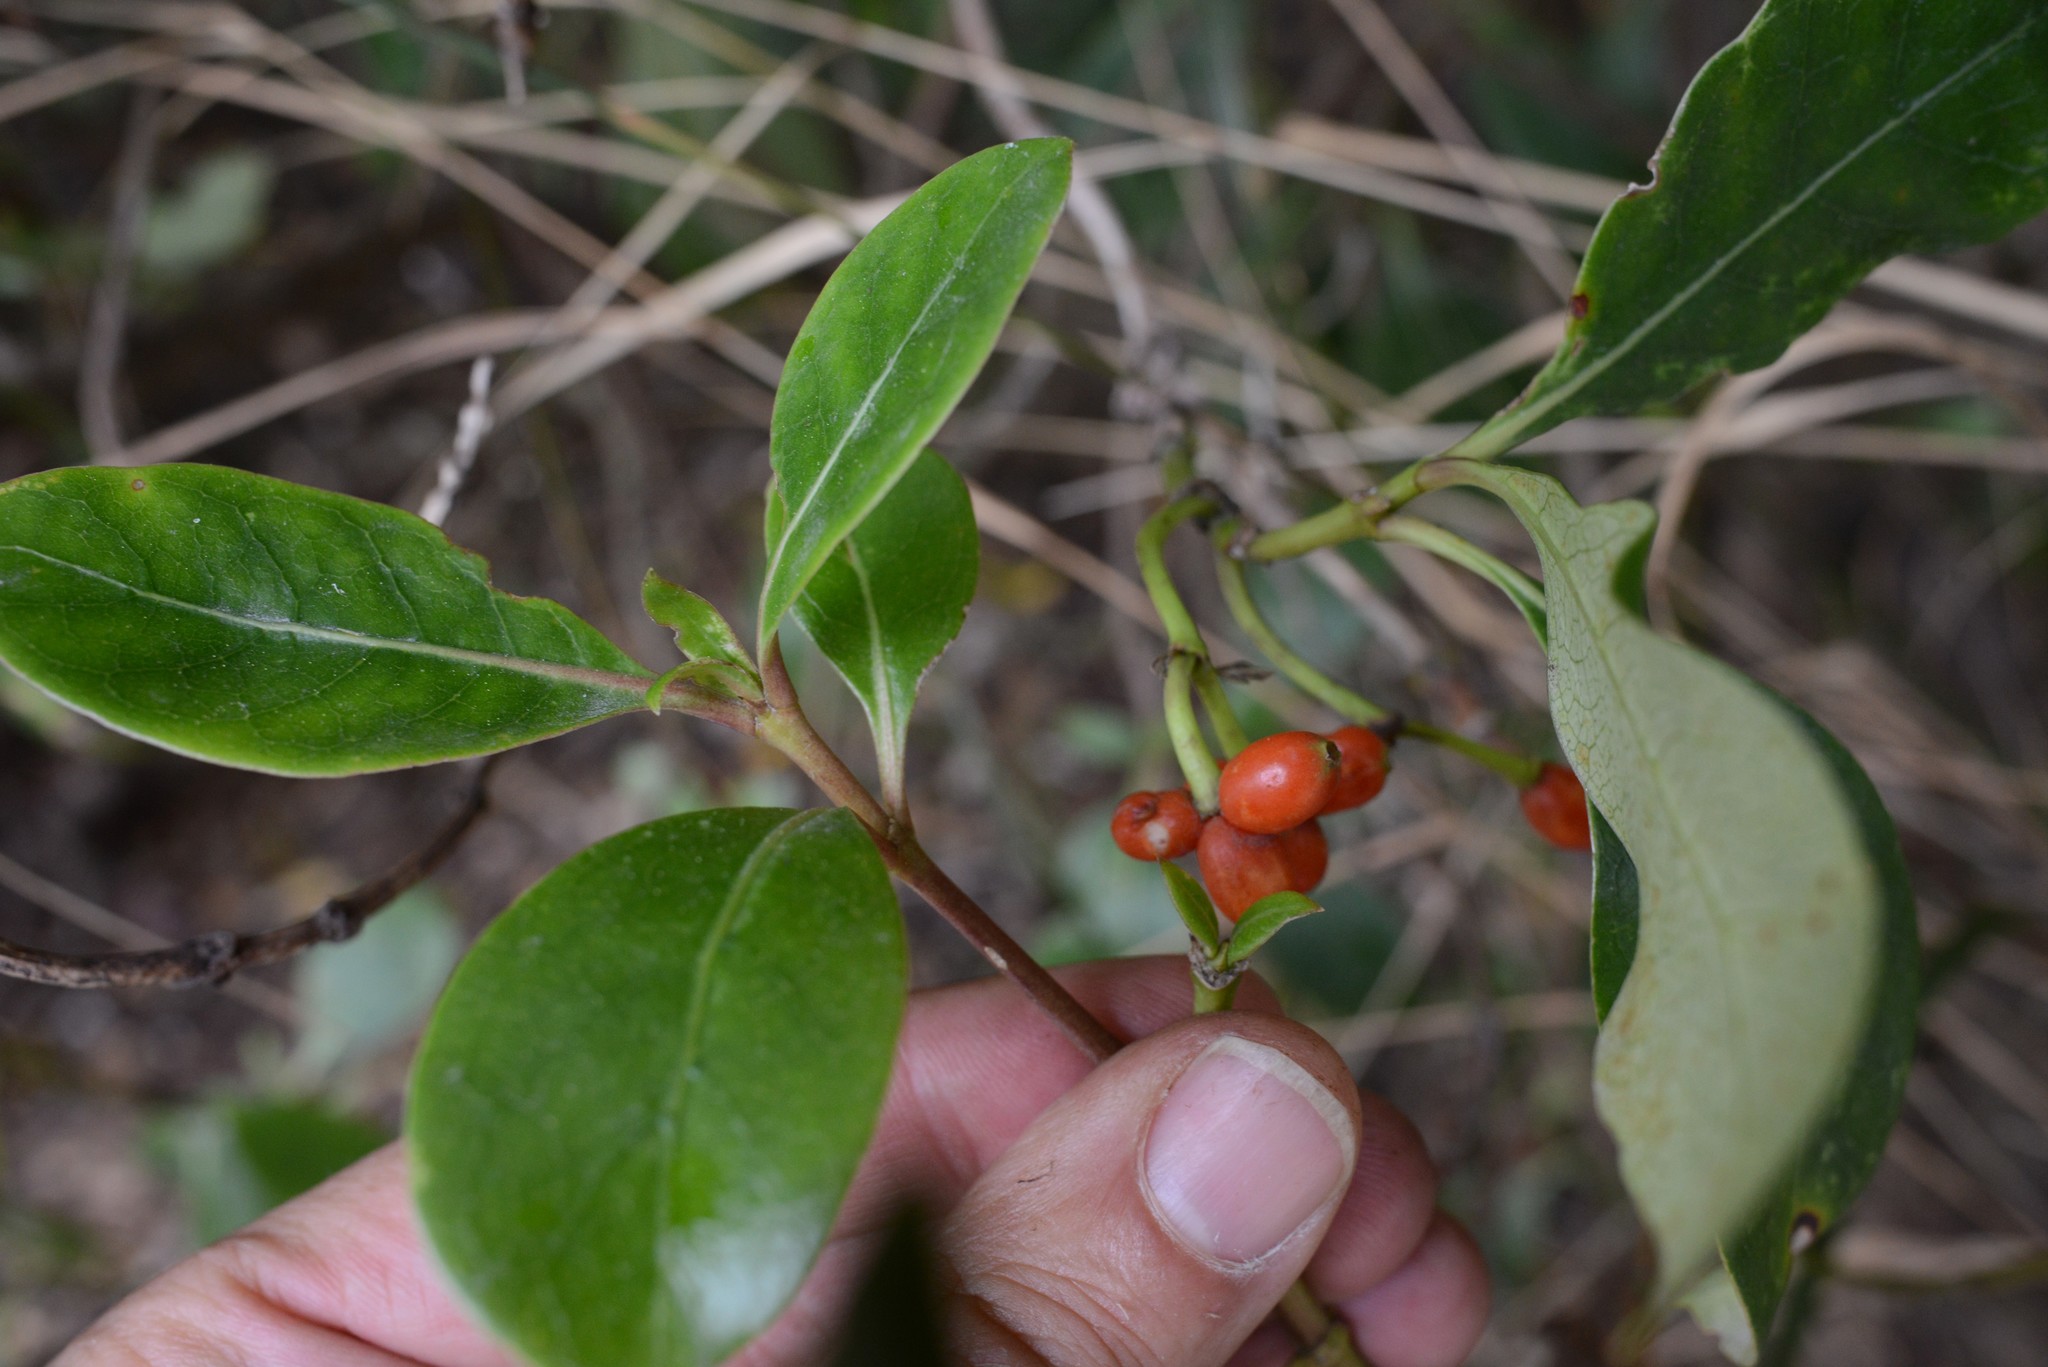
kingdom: Plantae
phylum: Tracheophyta
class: Magnoliopsida
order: Gentianales
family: Rubiaceae
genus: Coprosma
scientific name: Coprosma lucida
